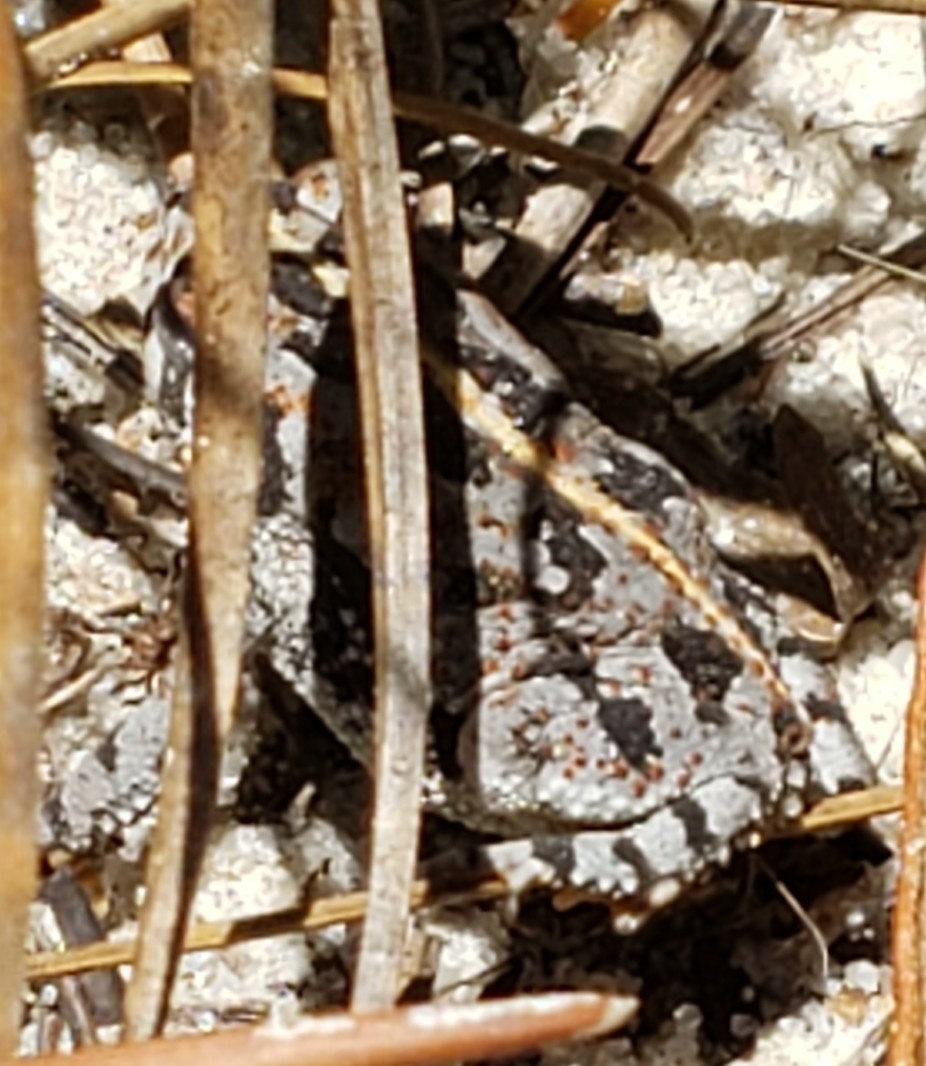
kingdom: Animalia
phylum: Chordata
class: Amphibia
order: Anura
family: Bufonidae
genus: Anaxyrus
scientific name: Anaxyrus quercicus
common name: Oak toad
